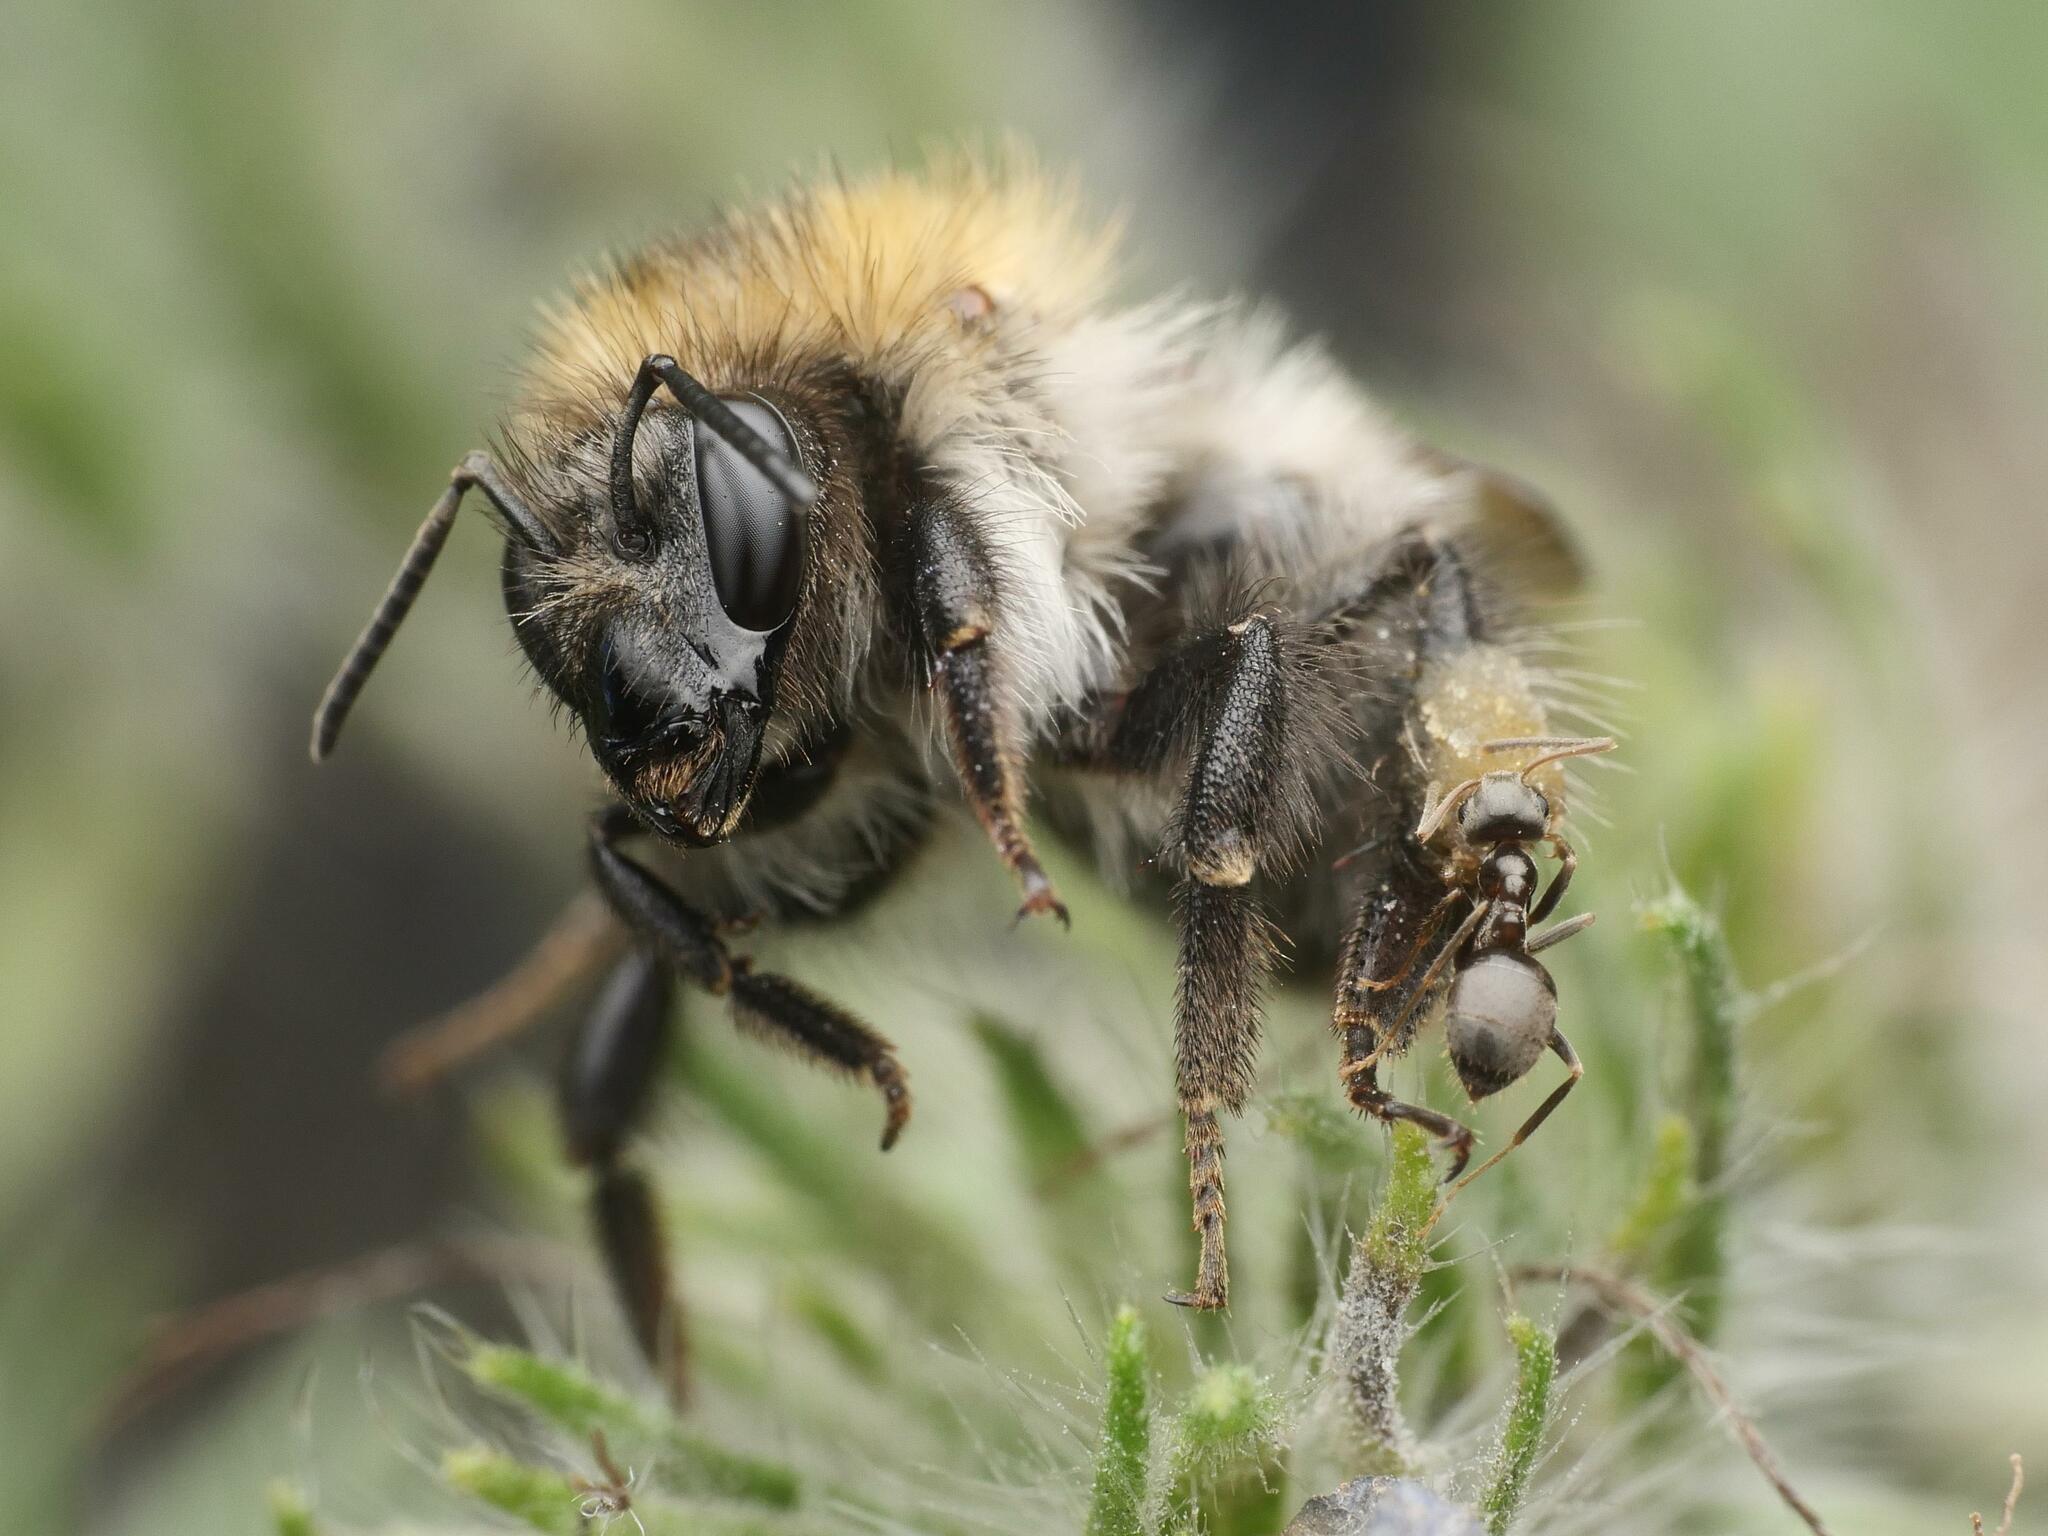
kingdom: Animalia
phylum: Arthropoda
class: Insecta
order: Hymenoptera
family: Apidae
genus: Bombus
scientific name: Bombus pascuorum
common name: Common carder bee
